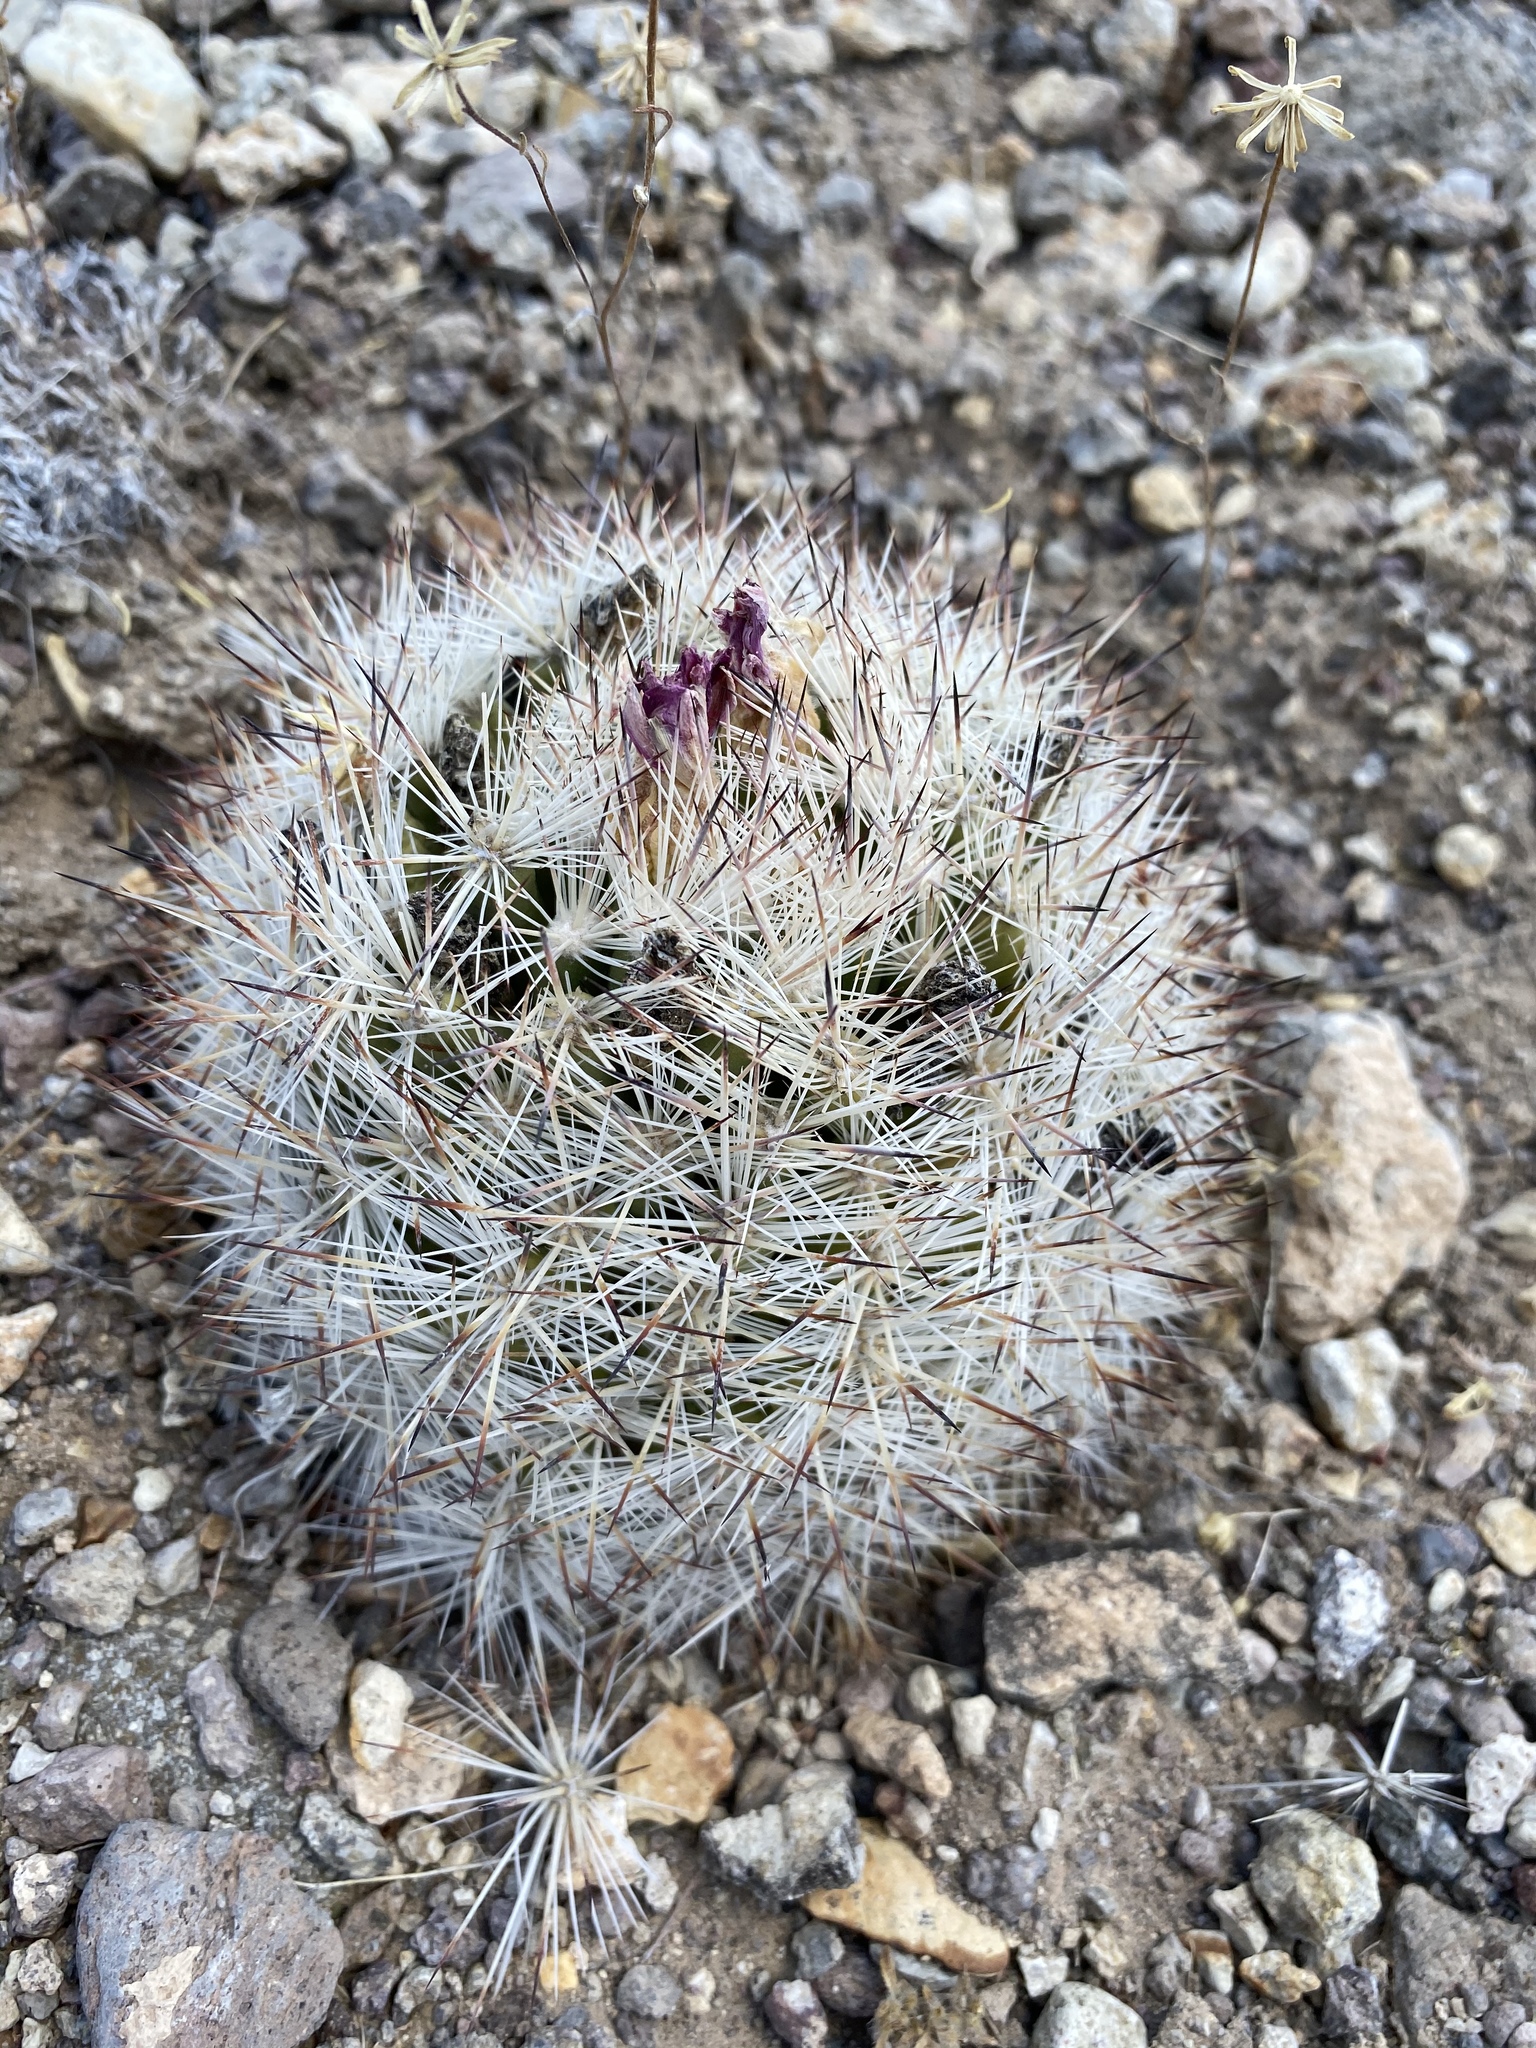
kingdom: Plantae
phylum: Tracheophyta
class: Magnoliopsida
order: Caryophyllales
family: Cactaceae
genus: Pelecyphora
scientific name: Pelecyphora vivipara
